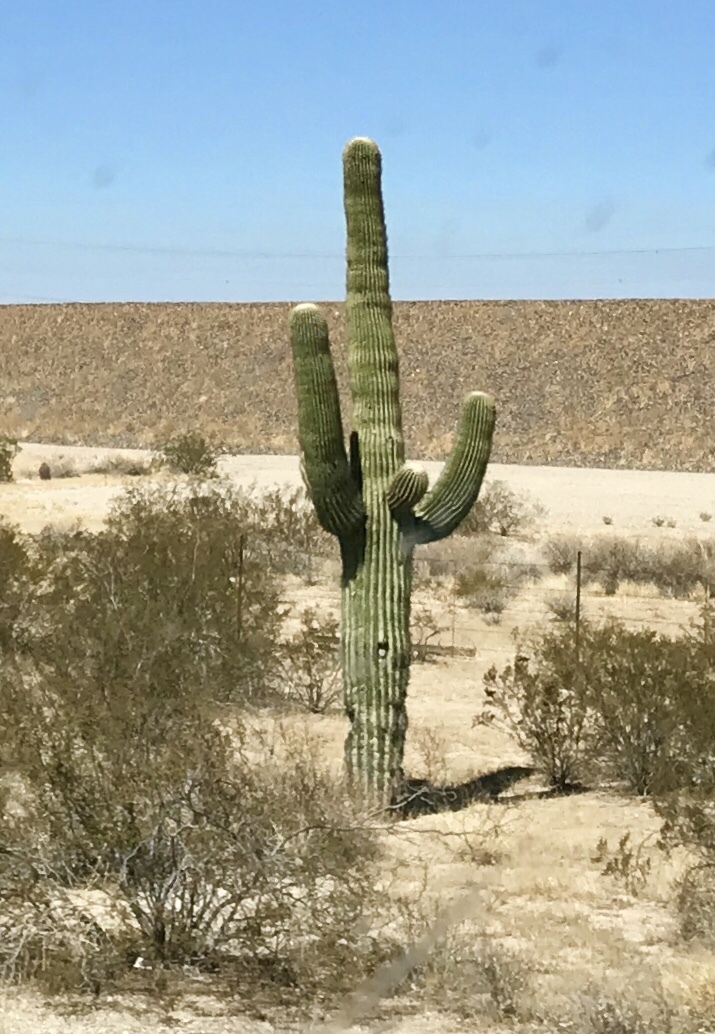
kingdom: Plantae
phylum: Tracheophyta
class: Magnoliopsida
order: Caryophyllales
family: Cactaceae
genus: Carnegiea
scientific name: Carnegiea gigantea
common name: Saguaro
